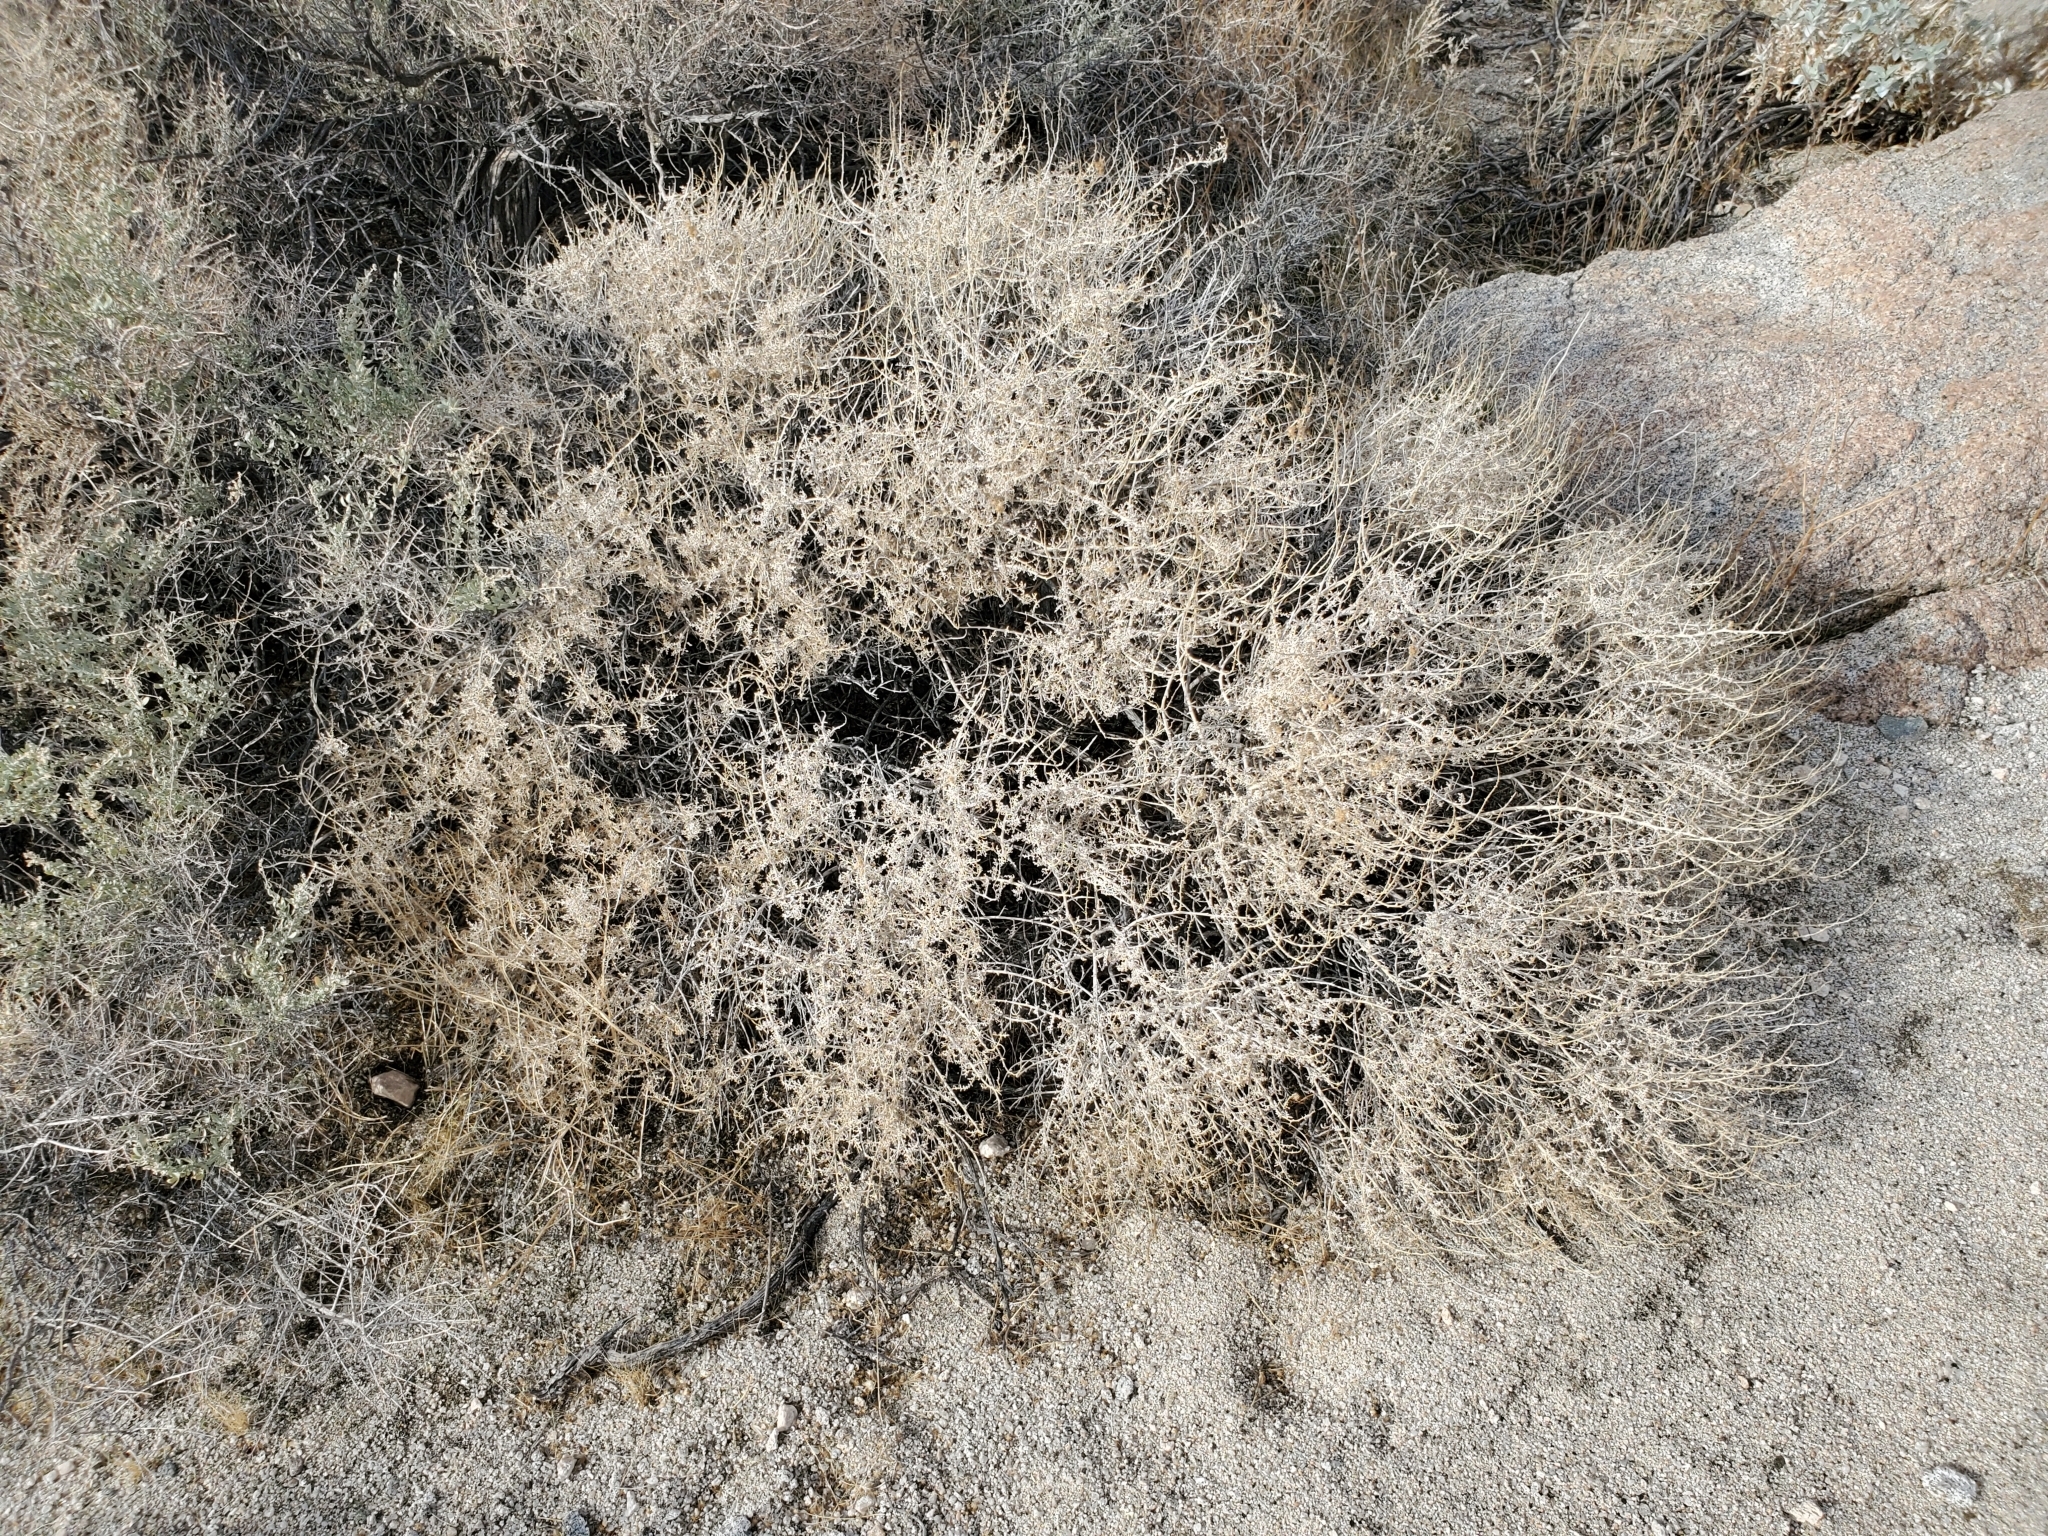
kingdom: Plantae
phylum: Tracheophyta
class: Magnoliopsida
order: Asterales
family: Asteraceae
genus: Ambrosia
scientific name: Ambrosia dumosa
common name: Bur-sage
